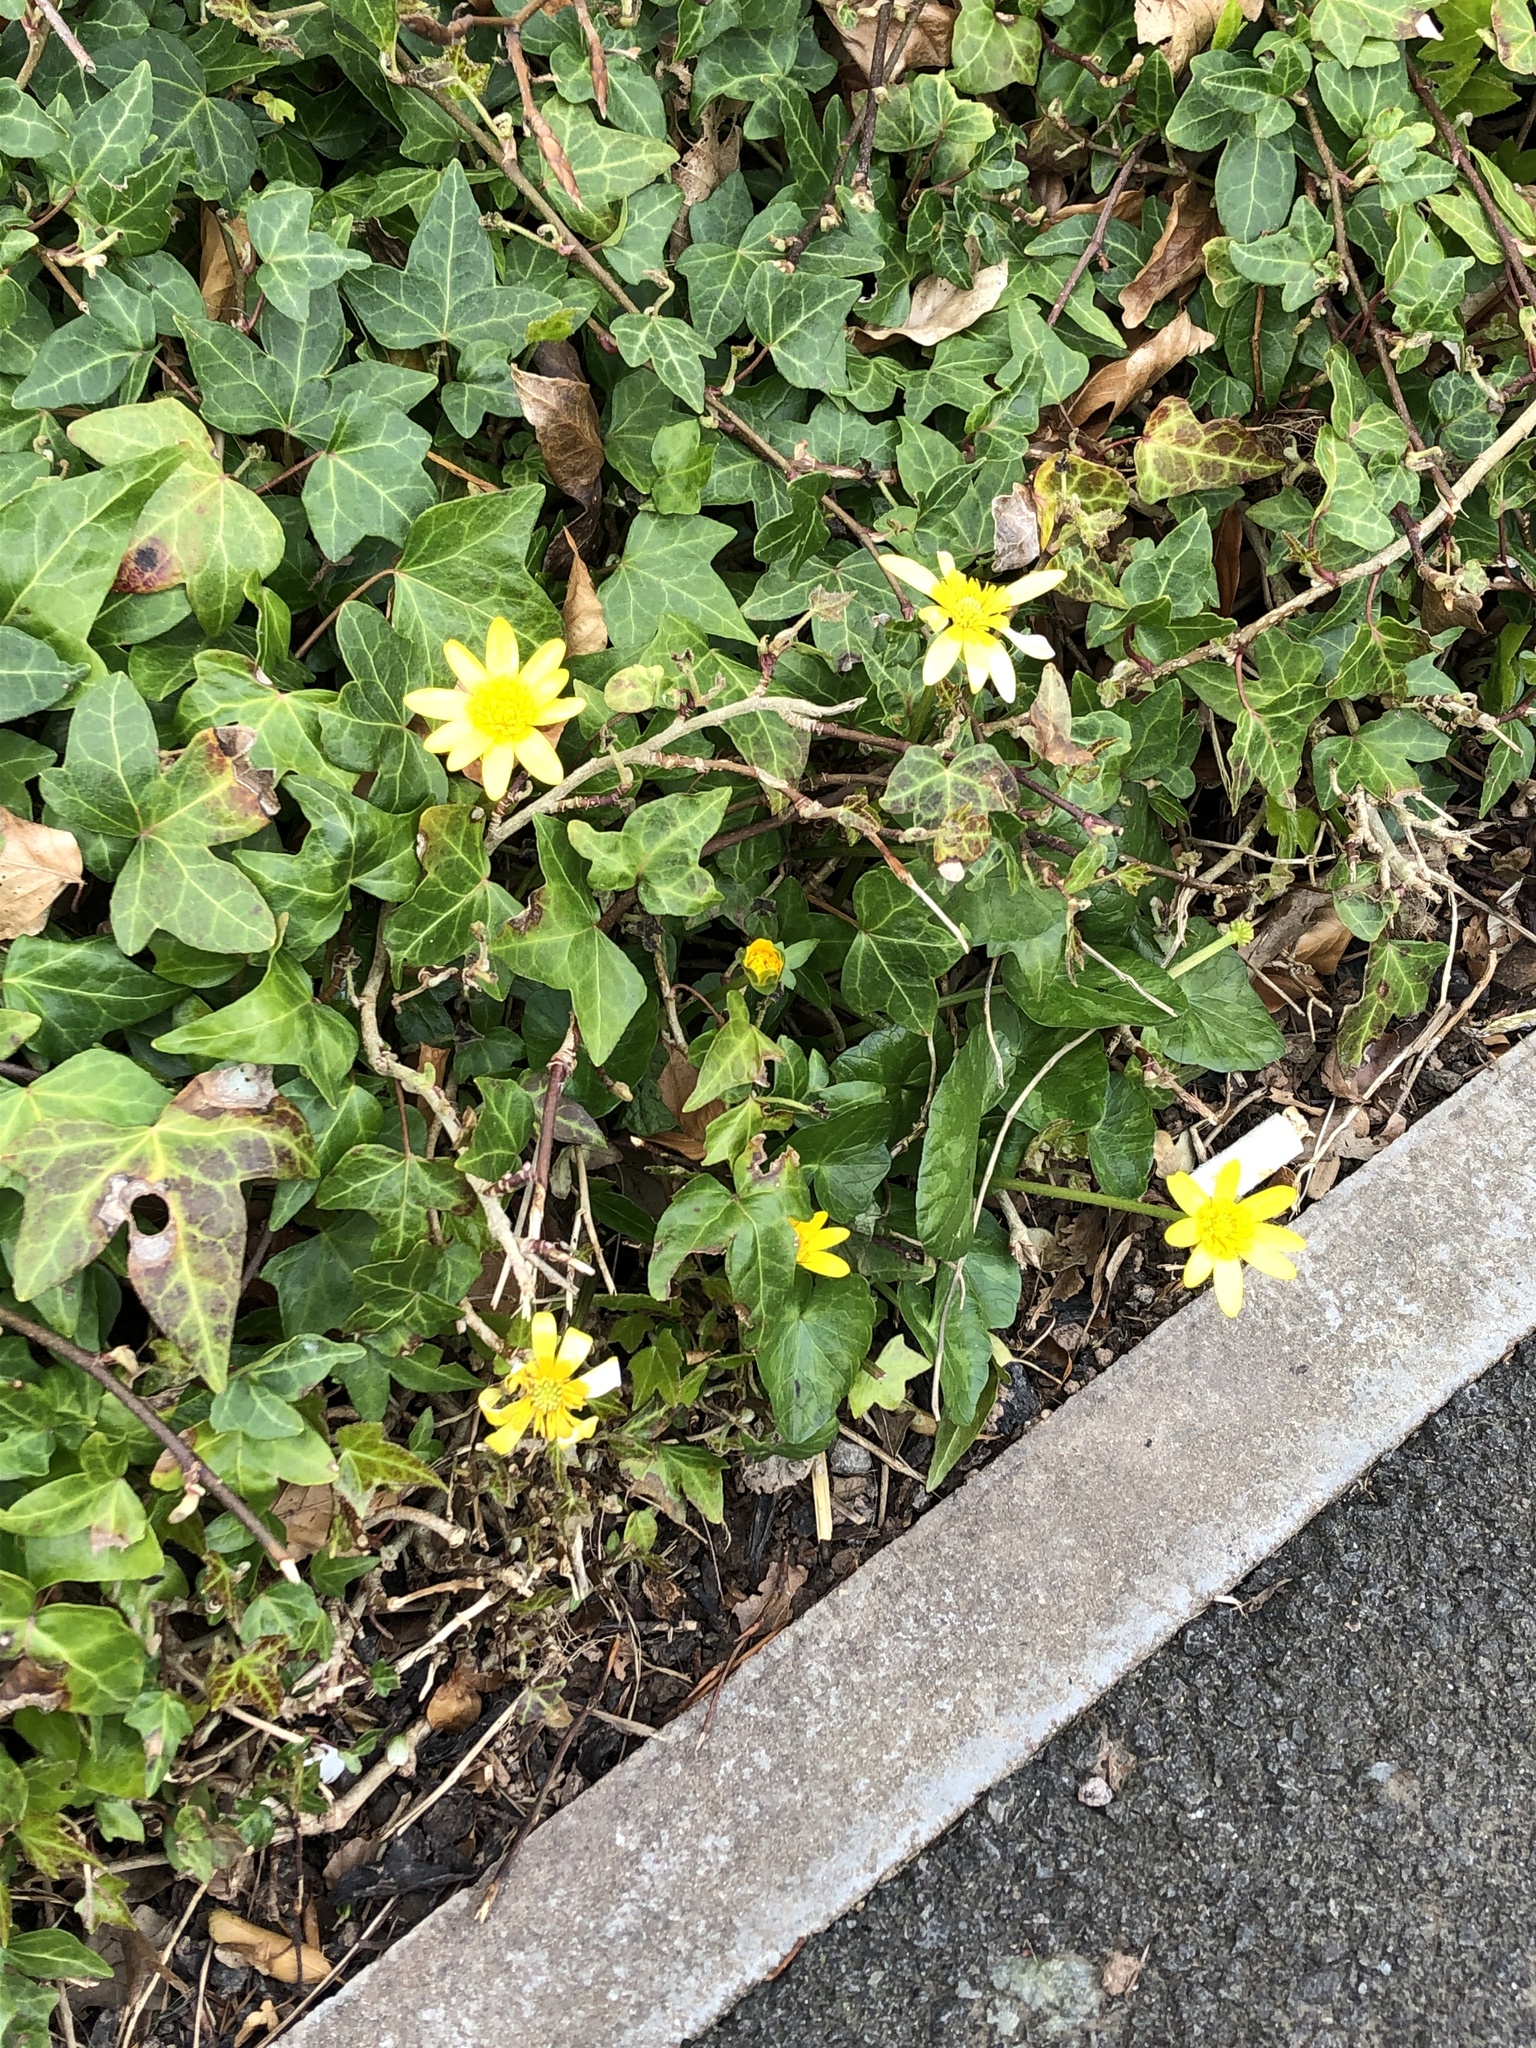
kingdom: Plantae
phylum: Tracheophyta
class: Magnoliopsida
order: Ranunculales
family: Ranunculaceae
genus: Ficaria
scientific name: Ficaria verna
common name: Lesser celandine
